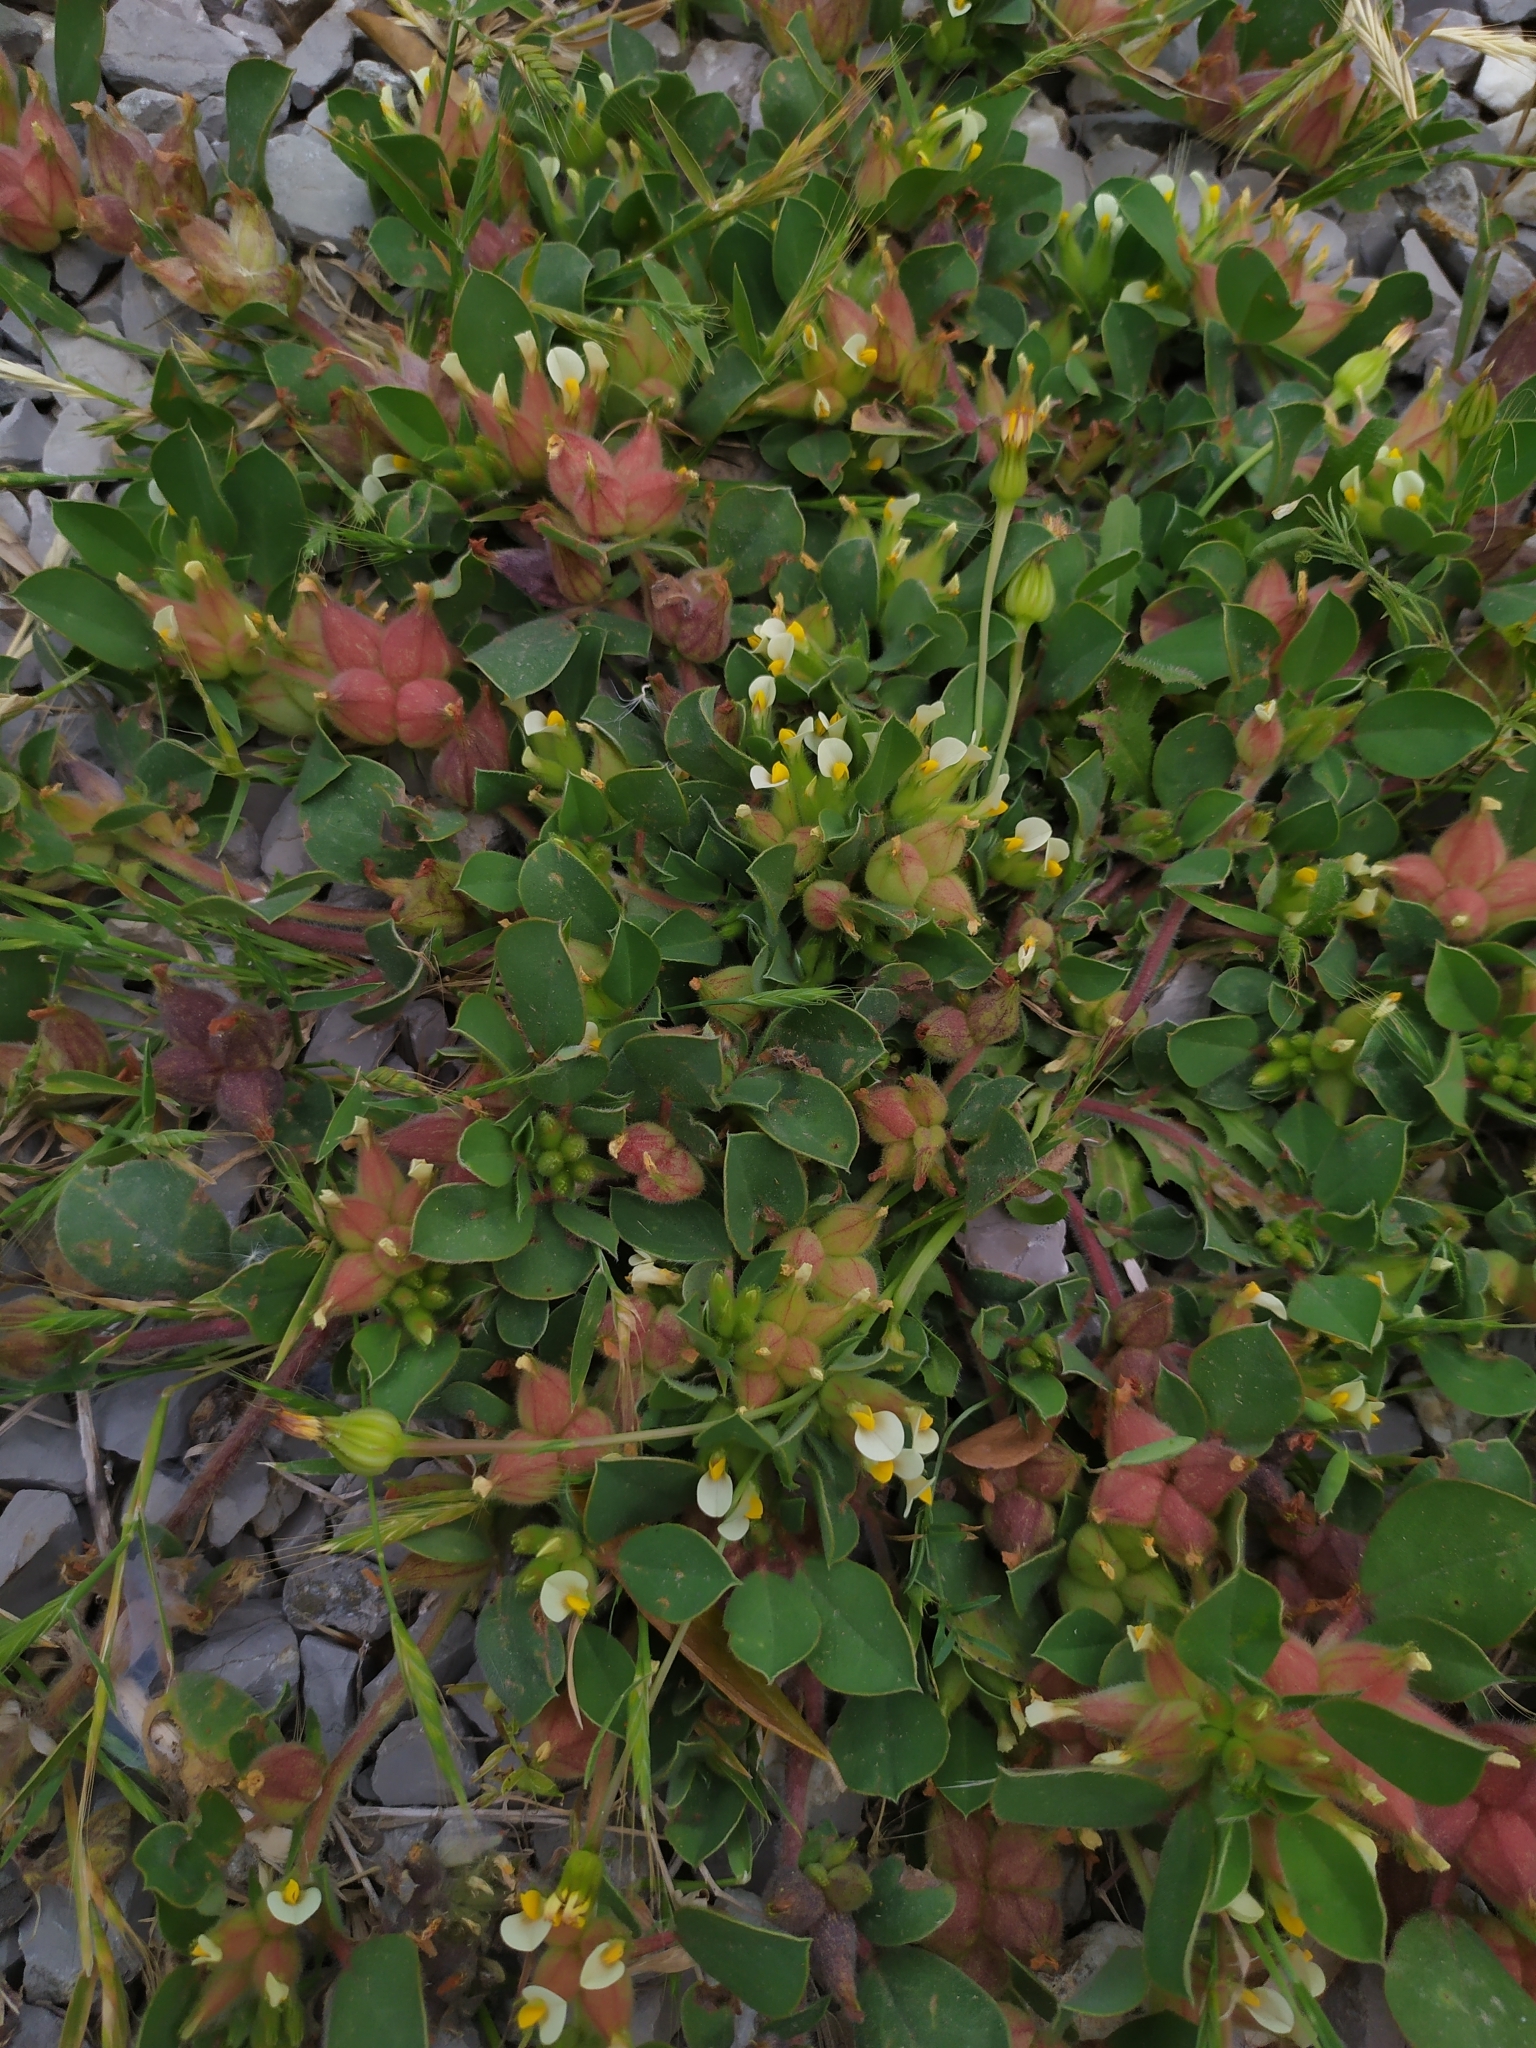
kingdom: Plantae
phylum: Tracheophyta
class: Magnoliopsida
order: Fabales
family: Fabaceae
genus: Tripodion
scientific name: Tripodion tetraphyllum
